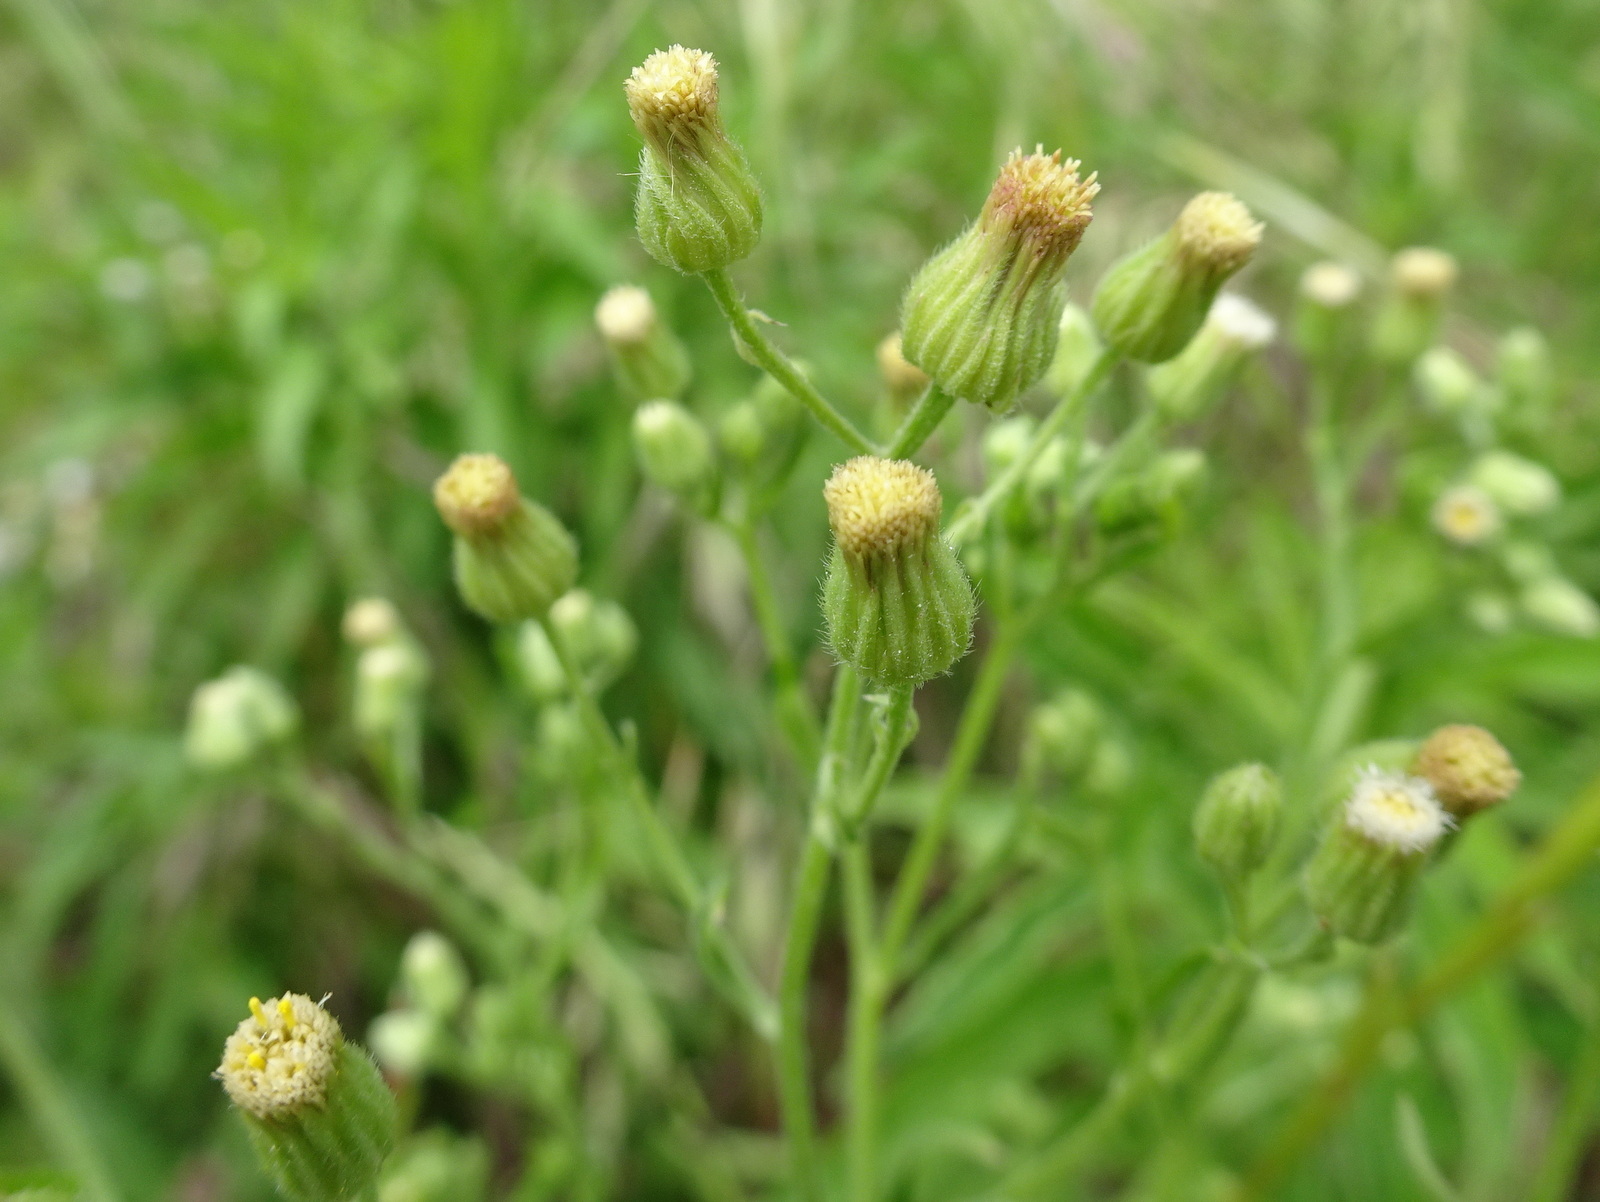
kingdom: Plantae
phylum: Tracheophyta
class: Magnoliopsida
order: Asterales
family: Asteraceae
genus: Erigeron
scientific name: Erigeron canadensis
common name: Canadian fleabane
